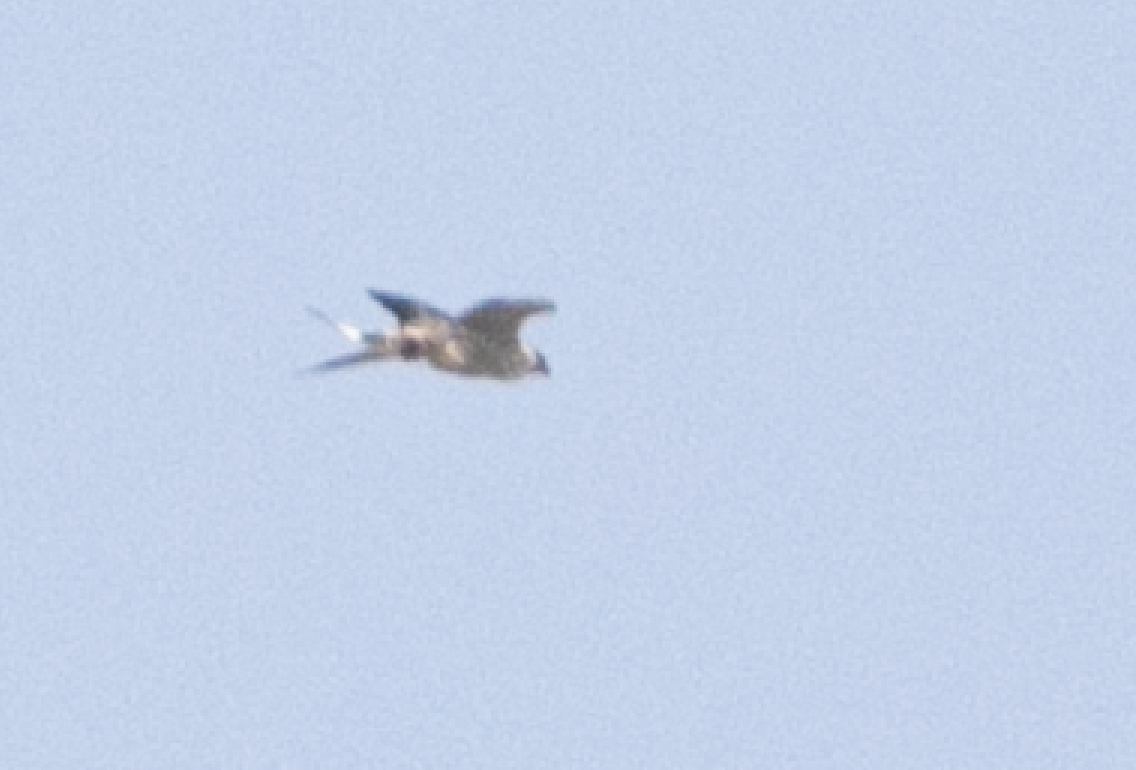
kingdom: Animalia
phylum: Chordata
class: Aves
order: Falconiformes
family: Falconidae
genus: Falco
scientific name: Falco peregrinus
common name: Peregrine falcon
